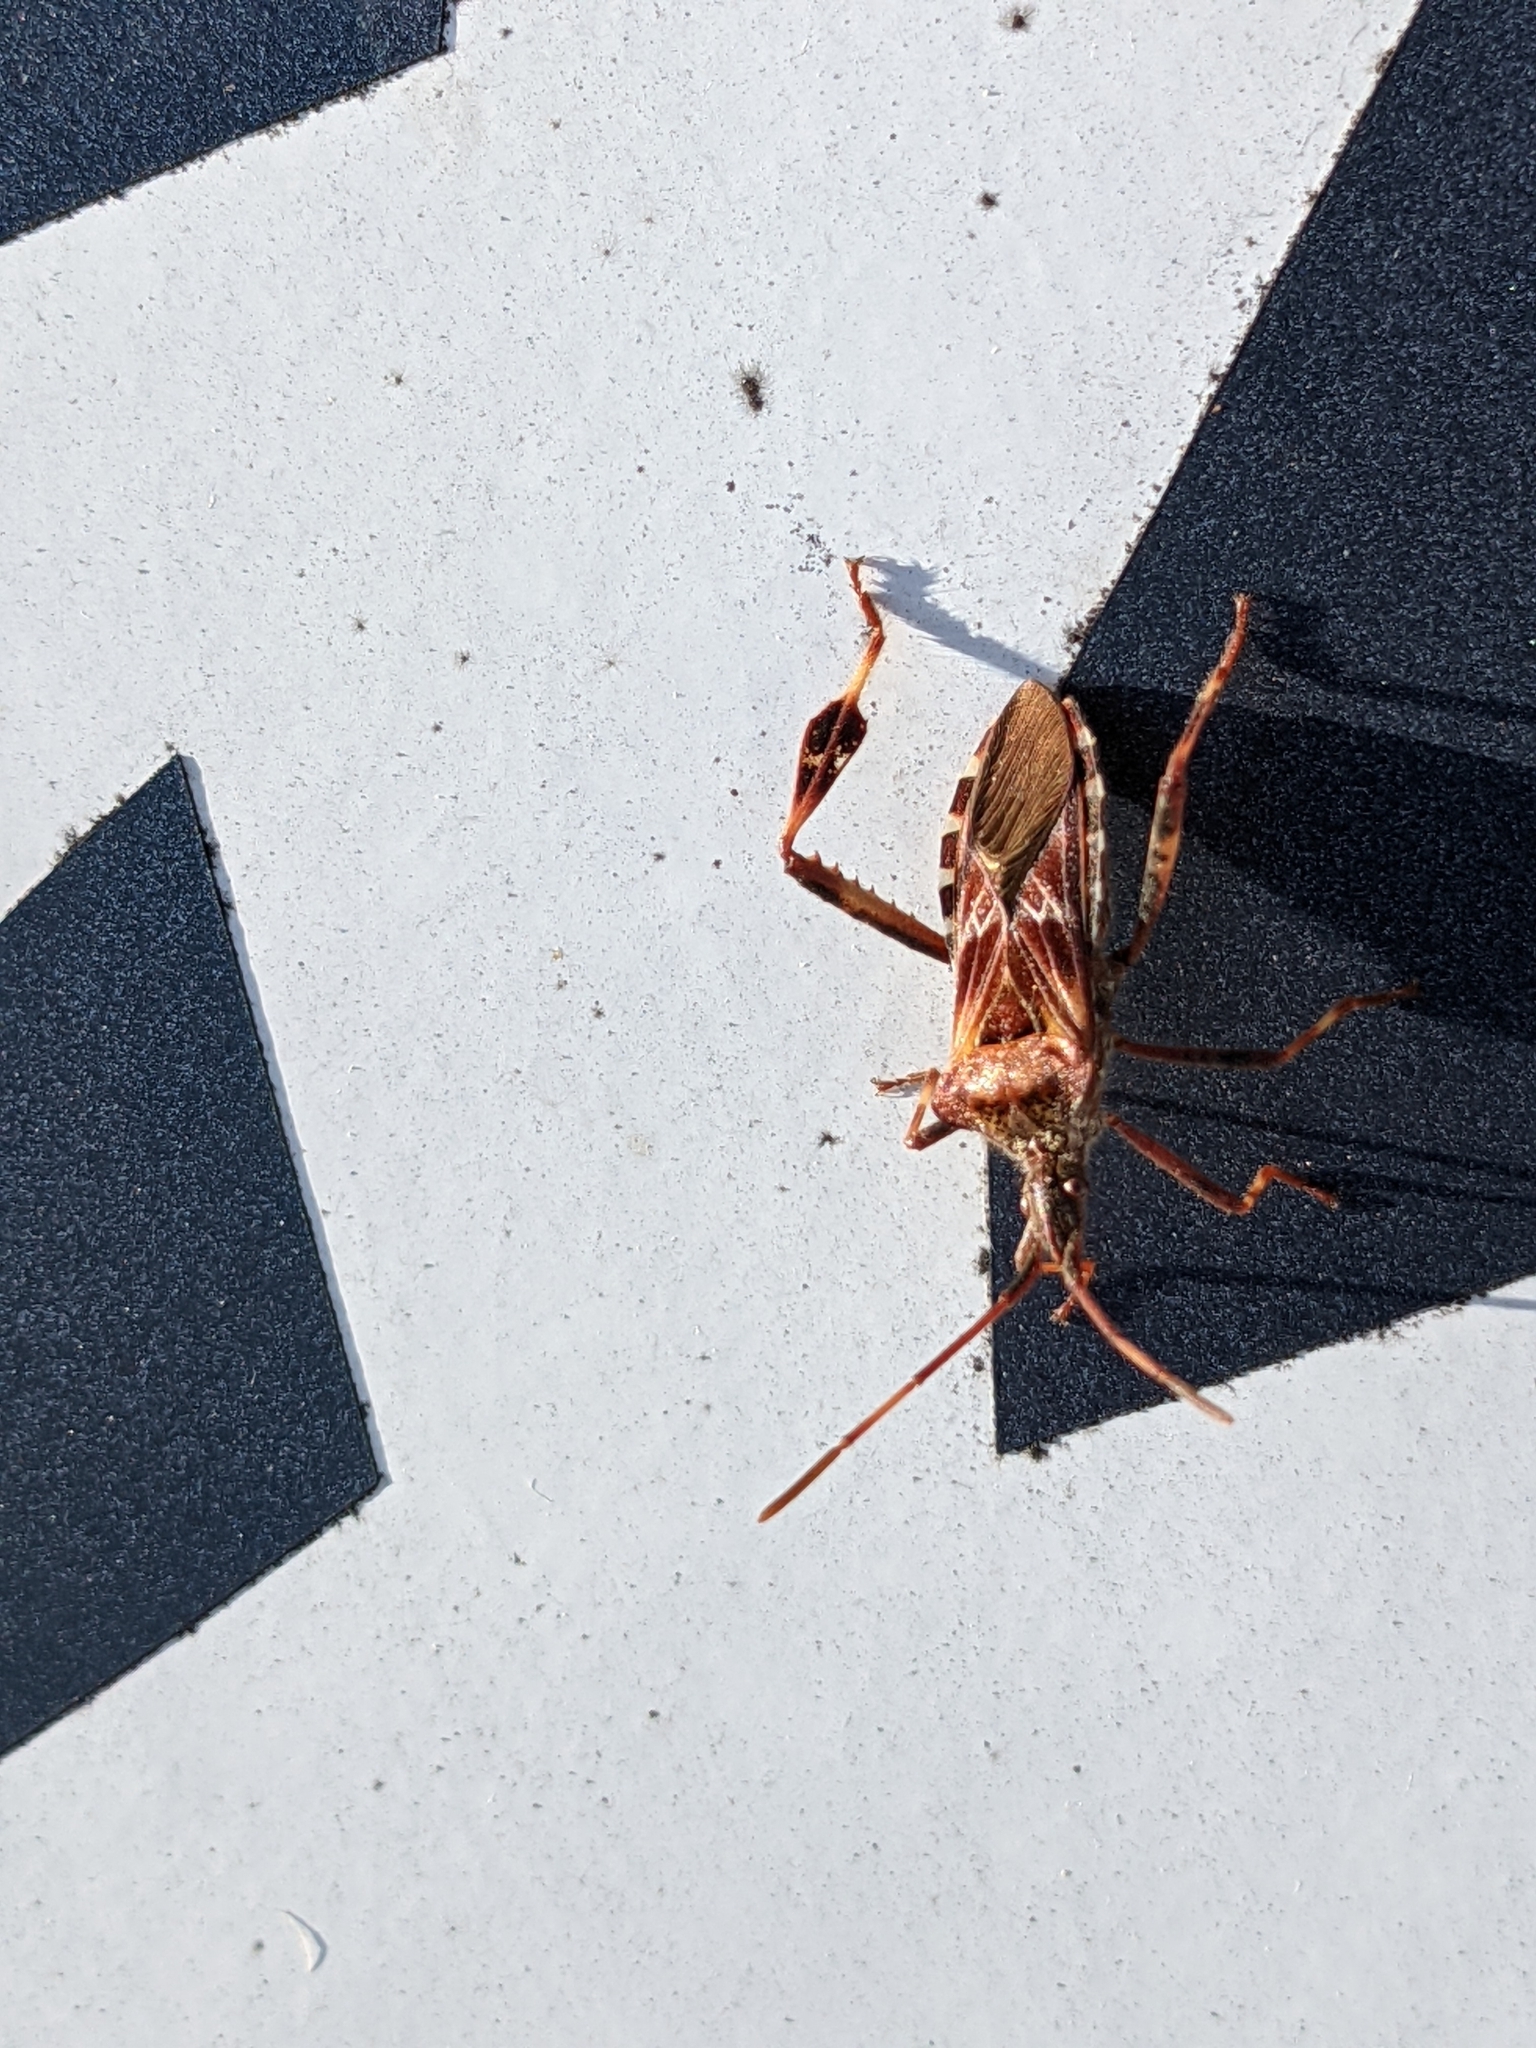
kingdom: Animalia
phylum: Arthropoda
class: Insecta
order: Hemiptera
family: Coreidae
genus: Leptoglossus
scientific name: Leptoglossus occidentalis
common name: Western conifer-seed bug
